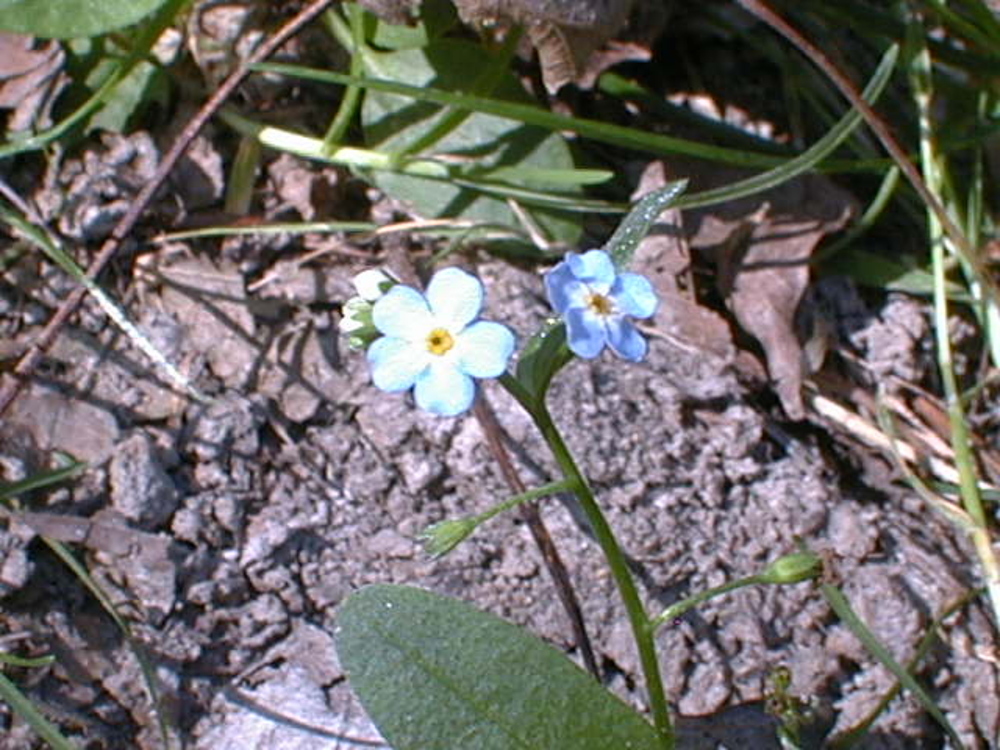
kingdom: Plantae
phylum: Tracheophyta
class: Magnoliopsida
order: Boraginales
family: Boraginaceae
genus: Myosotis
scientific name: Myosotis scorpioides
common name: Water forget-me-not
